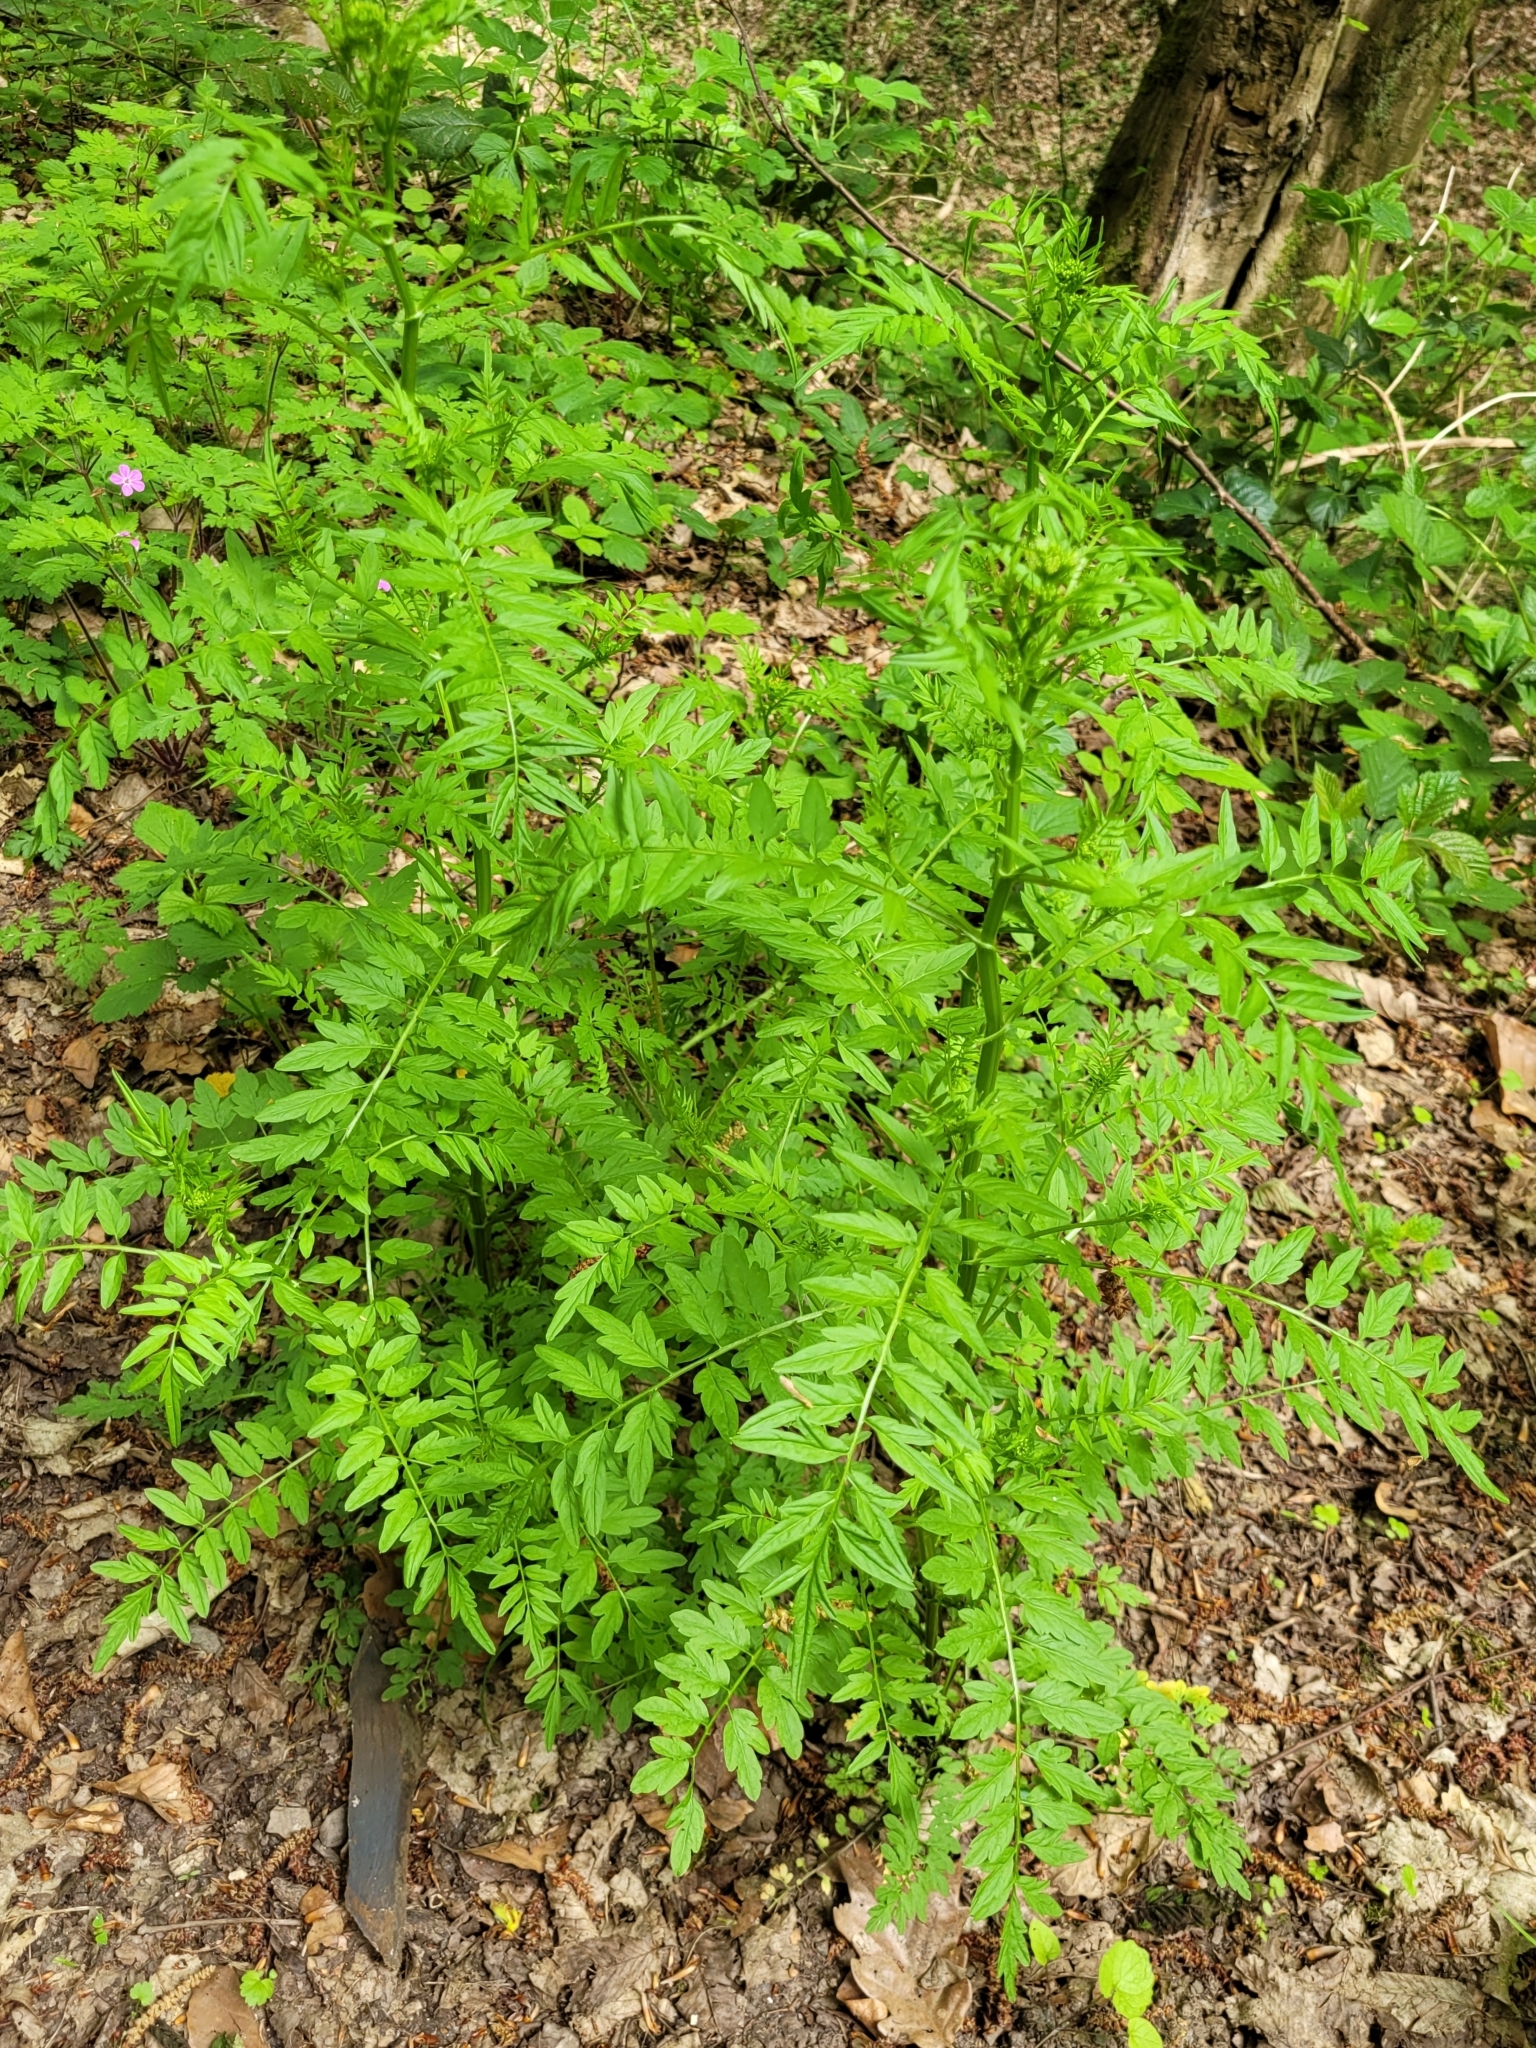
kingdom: Plantae
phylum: Tracheophyta
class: Magnoliopsida
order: Brassicales
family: Brassicaceae
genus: Cardamine
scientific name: Cardamine impatiens
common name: Narrow-leaved bitter-cress
